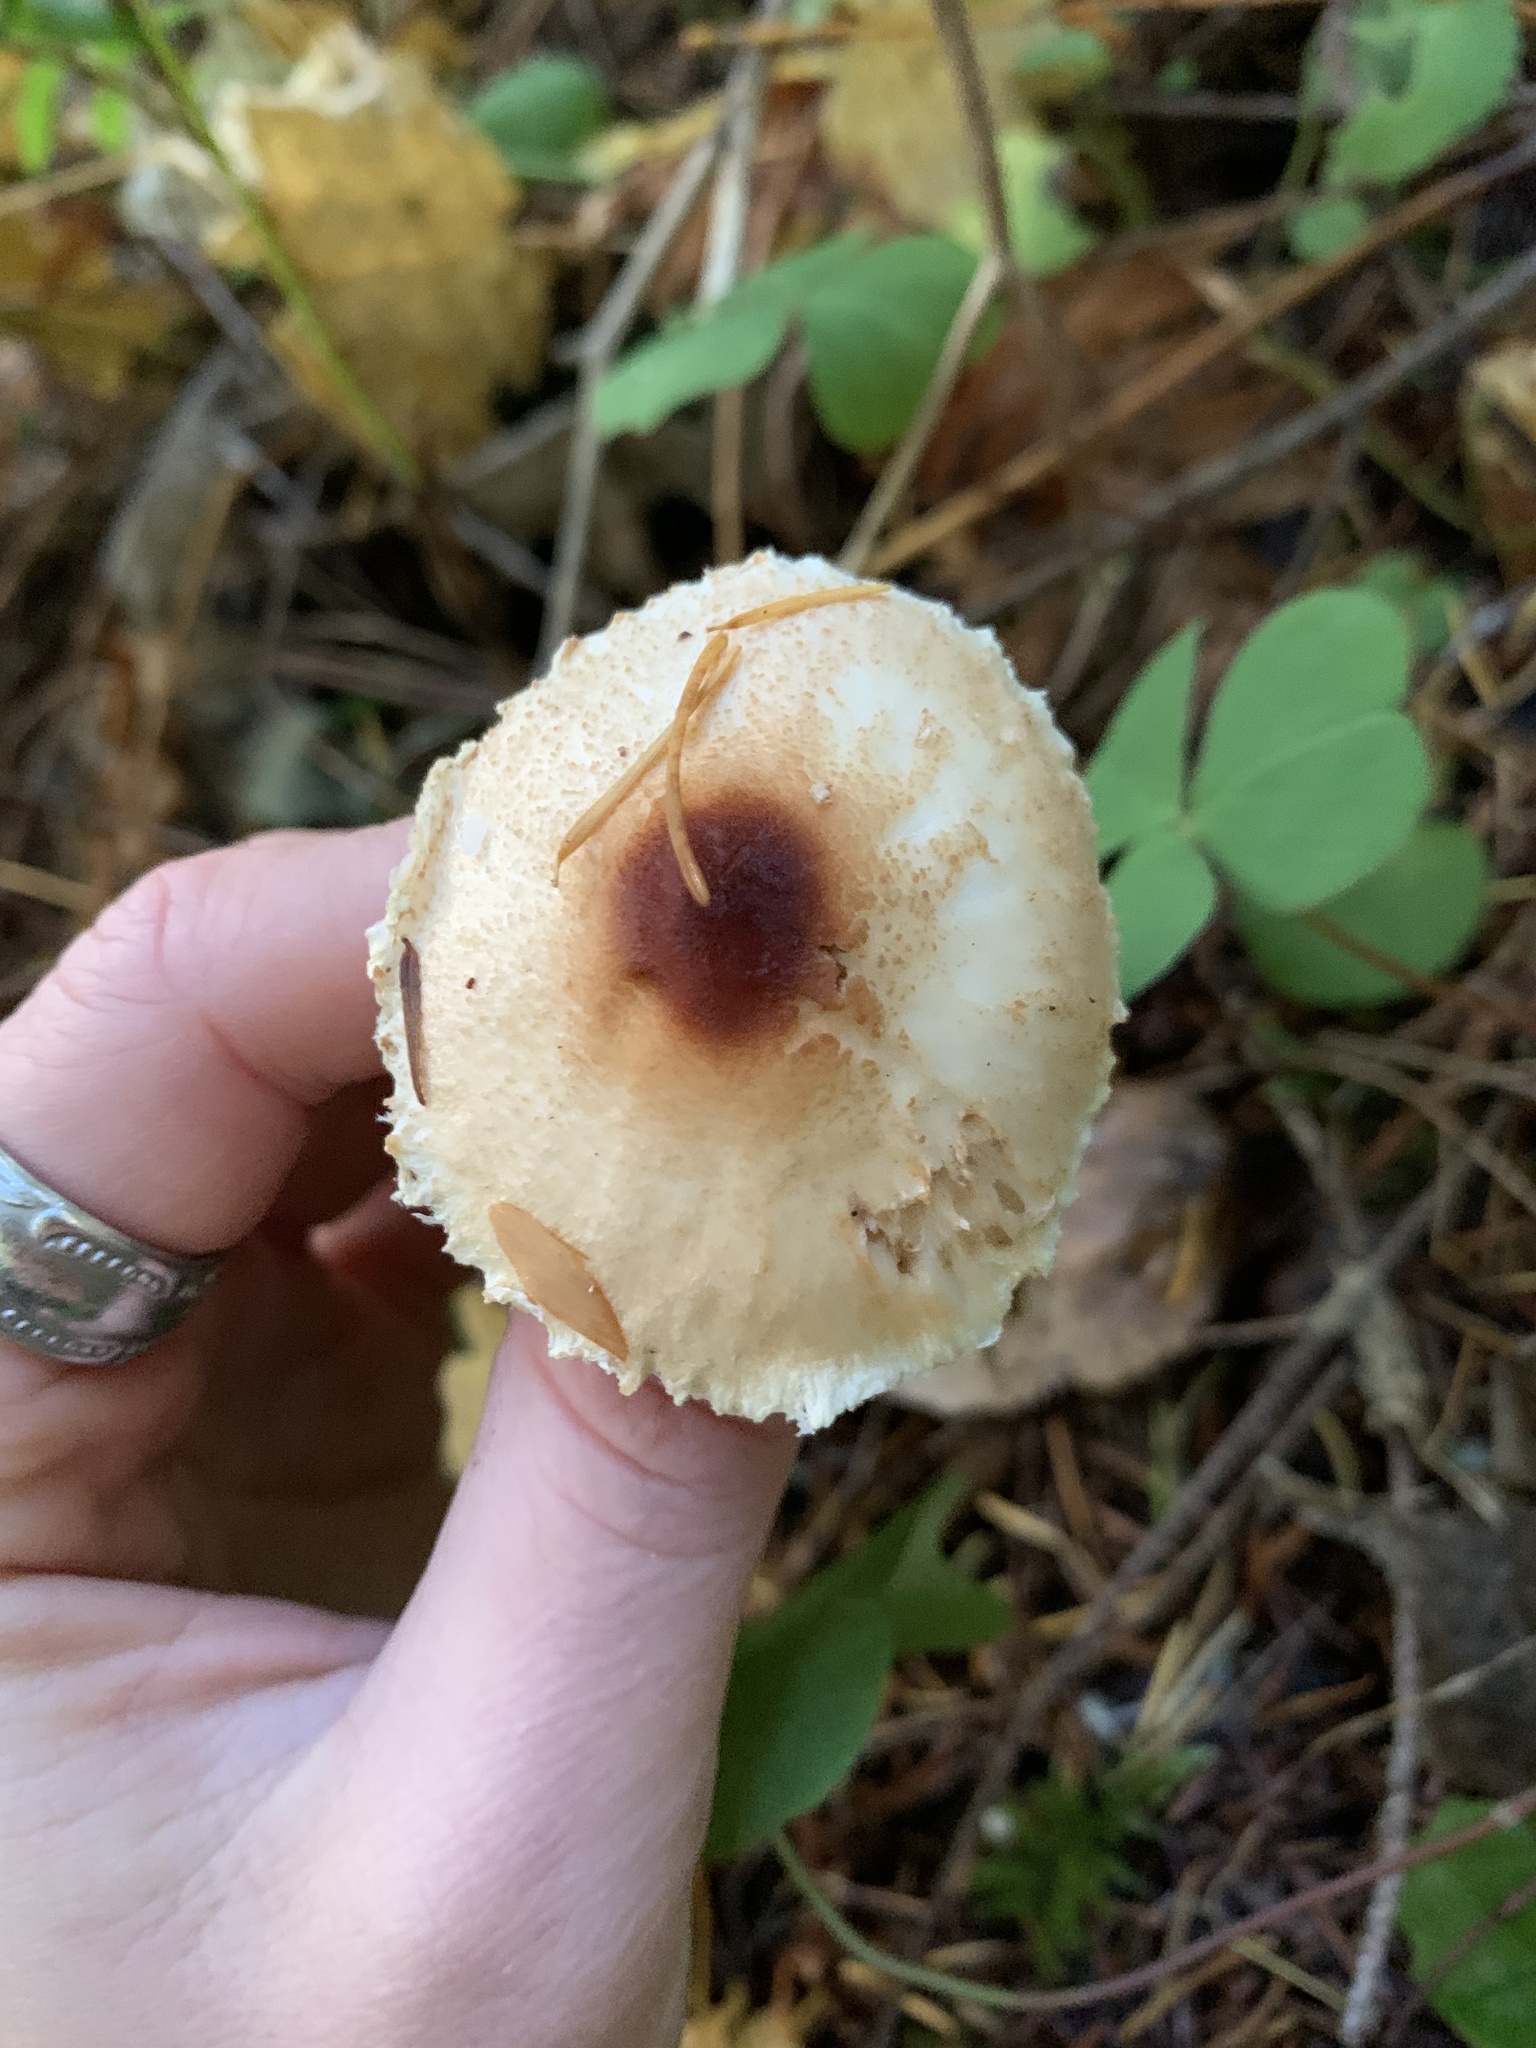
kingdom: Fungi
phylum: Basidiomycota
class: Agaricomycetes
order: Agaricales
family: Agaricaceae
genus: Lepiota
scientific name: Lepiota magnispora
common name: Yellowfoot dapperling
